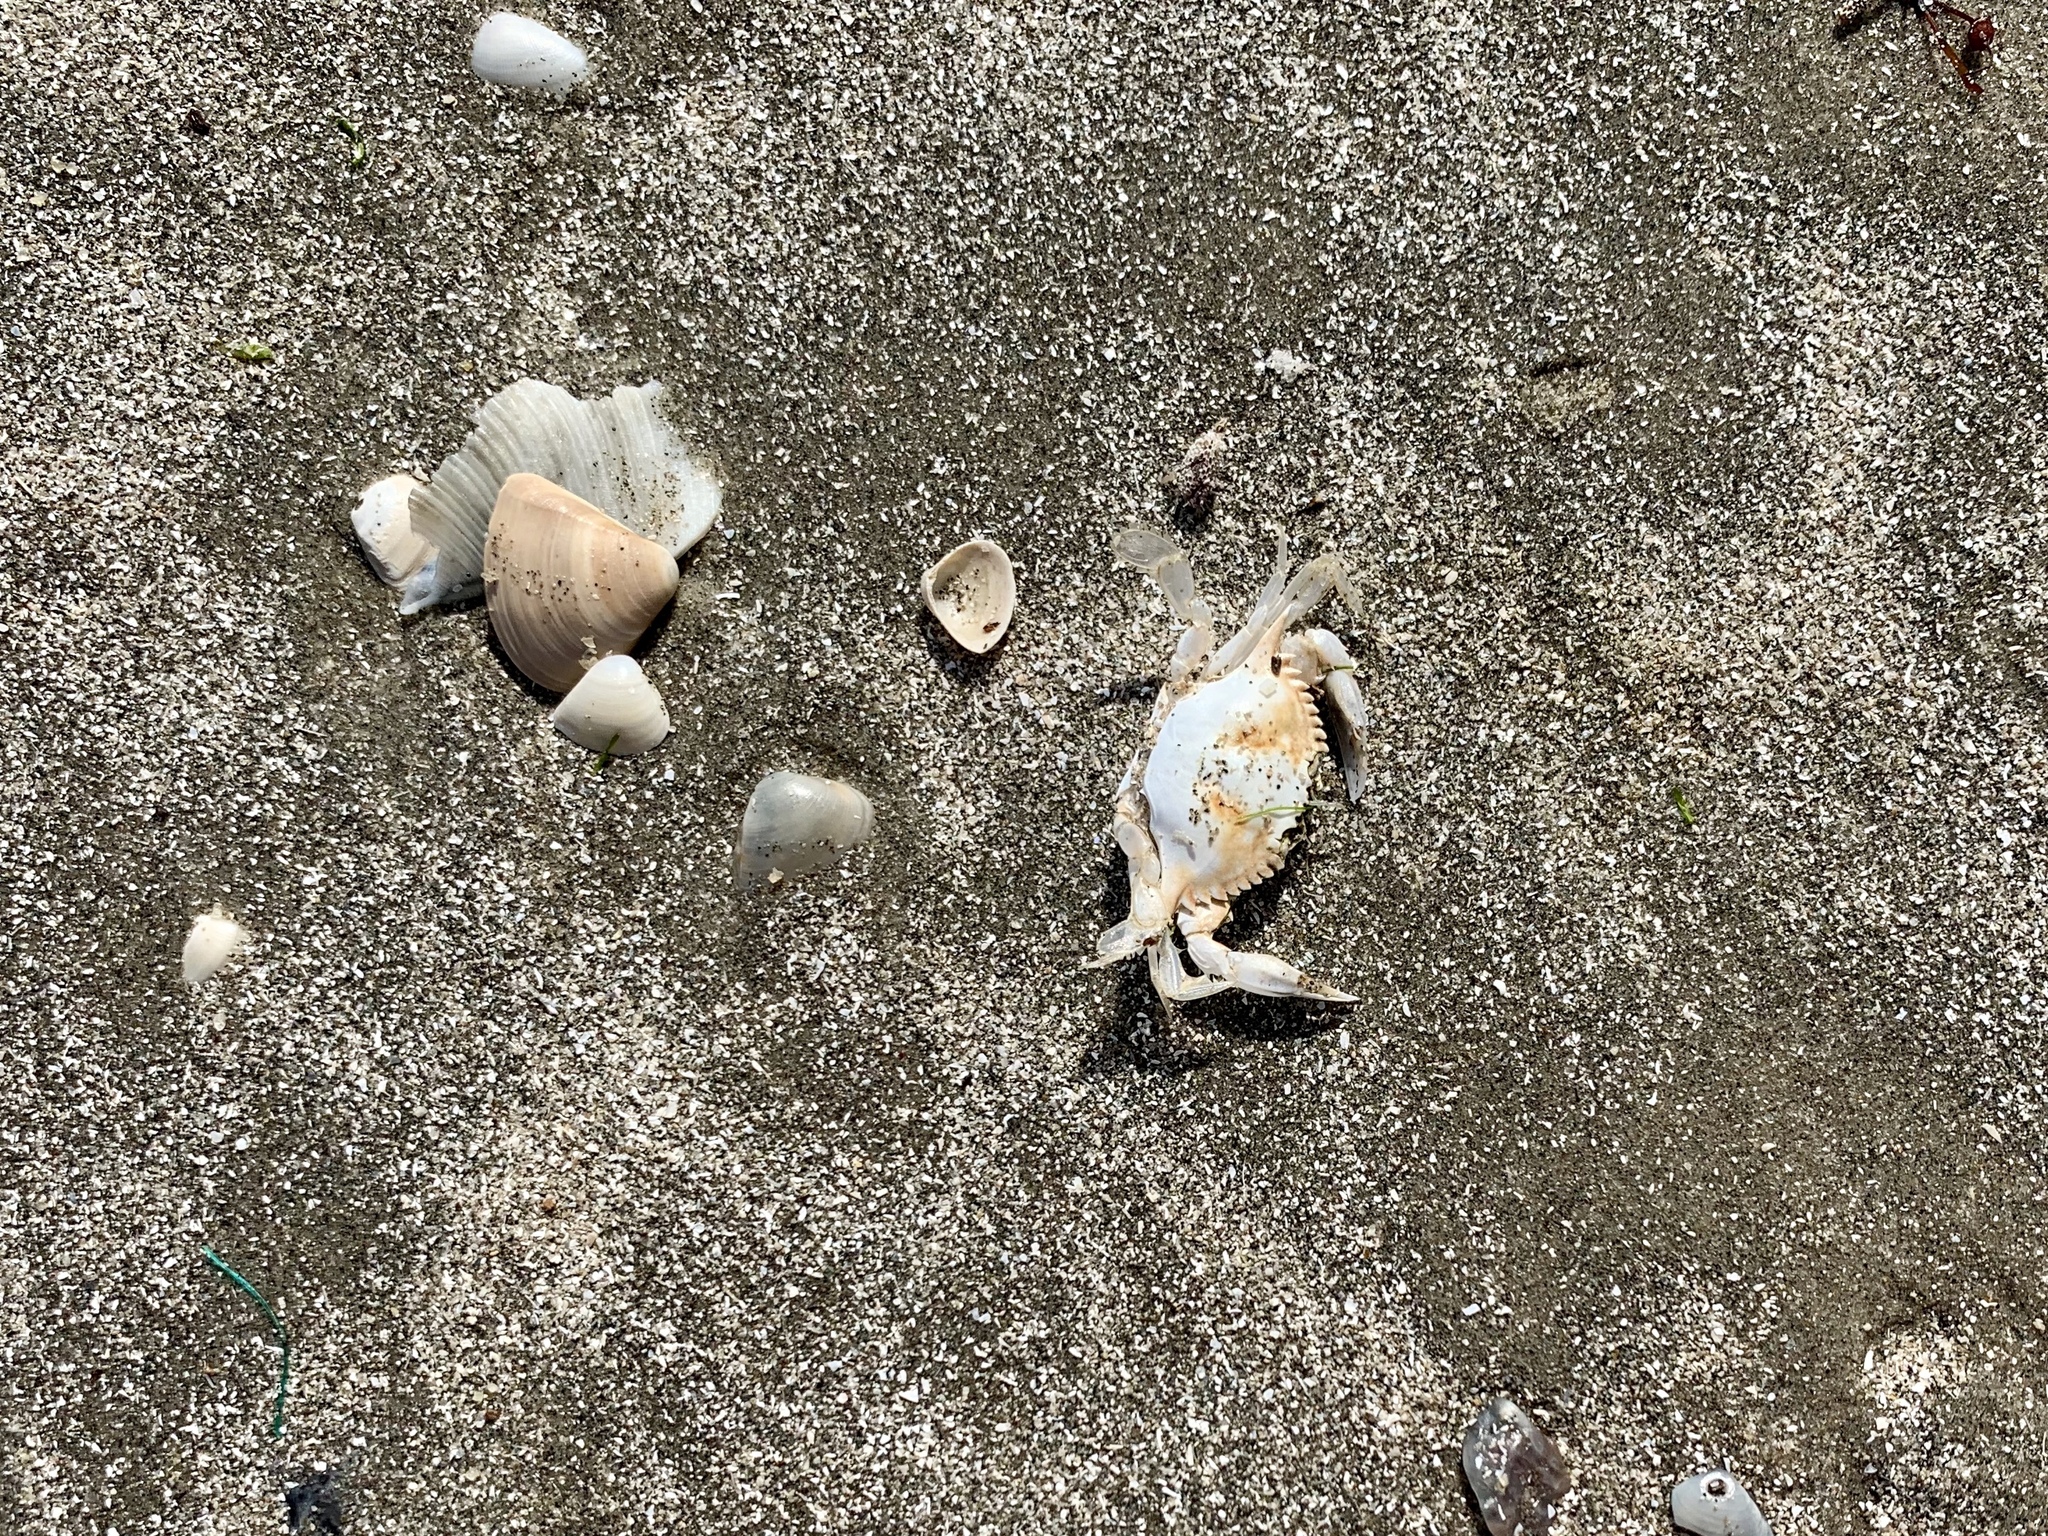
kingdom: Animalia
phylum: Arthropoda
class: Malacostraca
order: Decapoda
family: Portunidae
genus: Callinectes
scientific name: Callinectes sapidus
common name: Blue crab
